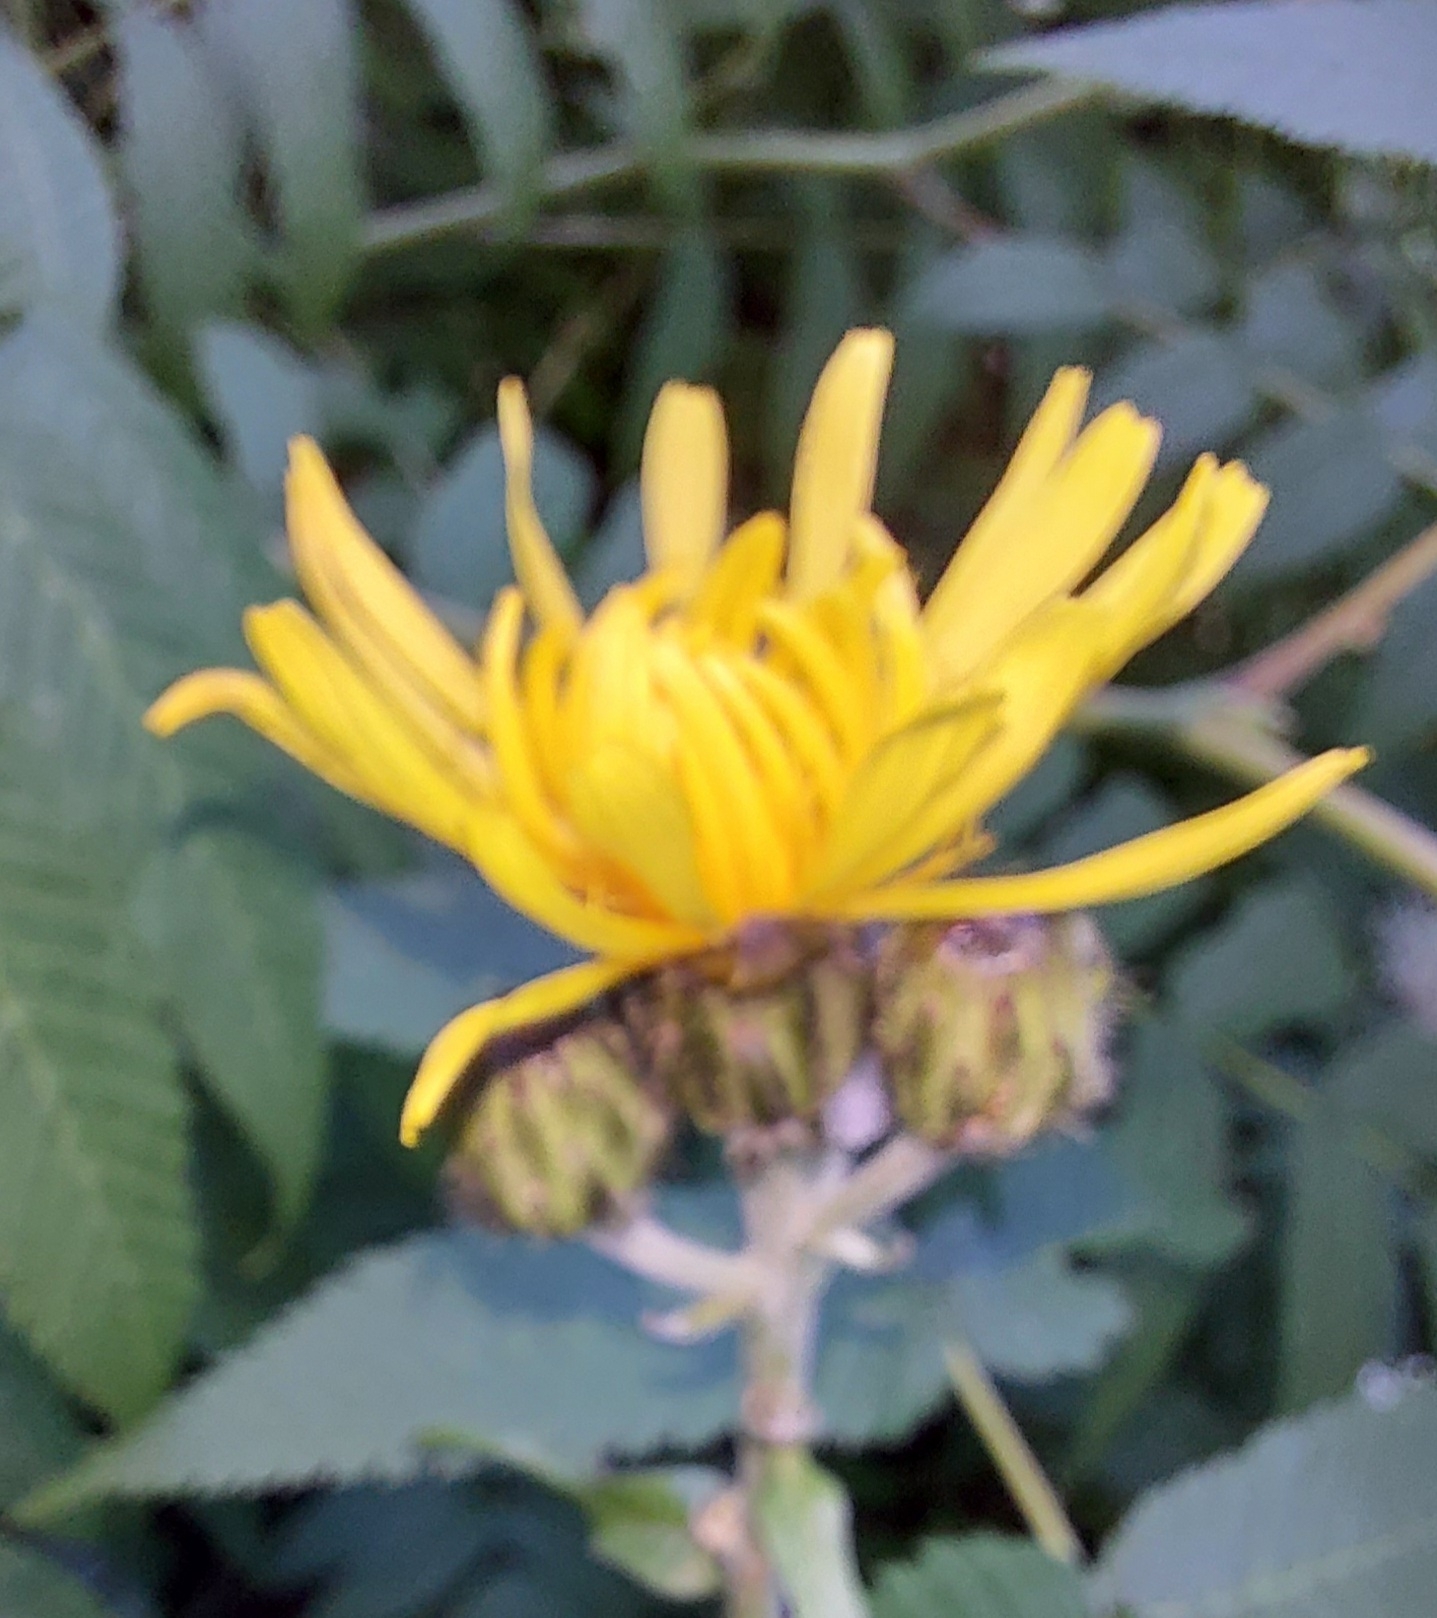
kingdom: Plantae
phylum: Tracheophyta
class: Magnoliopsida
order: Asterales
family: Asteraceae
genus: Sonchus
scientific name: Sonchus arvensis
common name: Perennial sow-thistle
